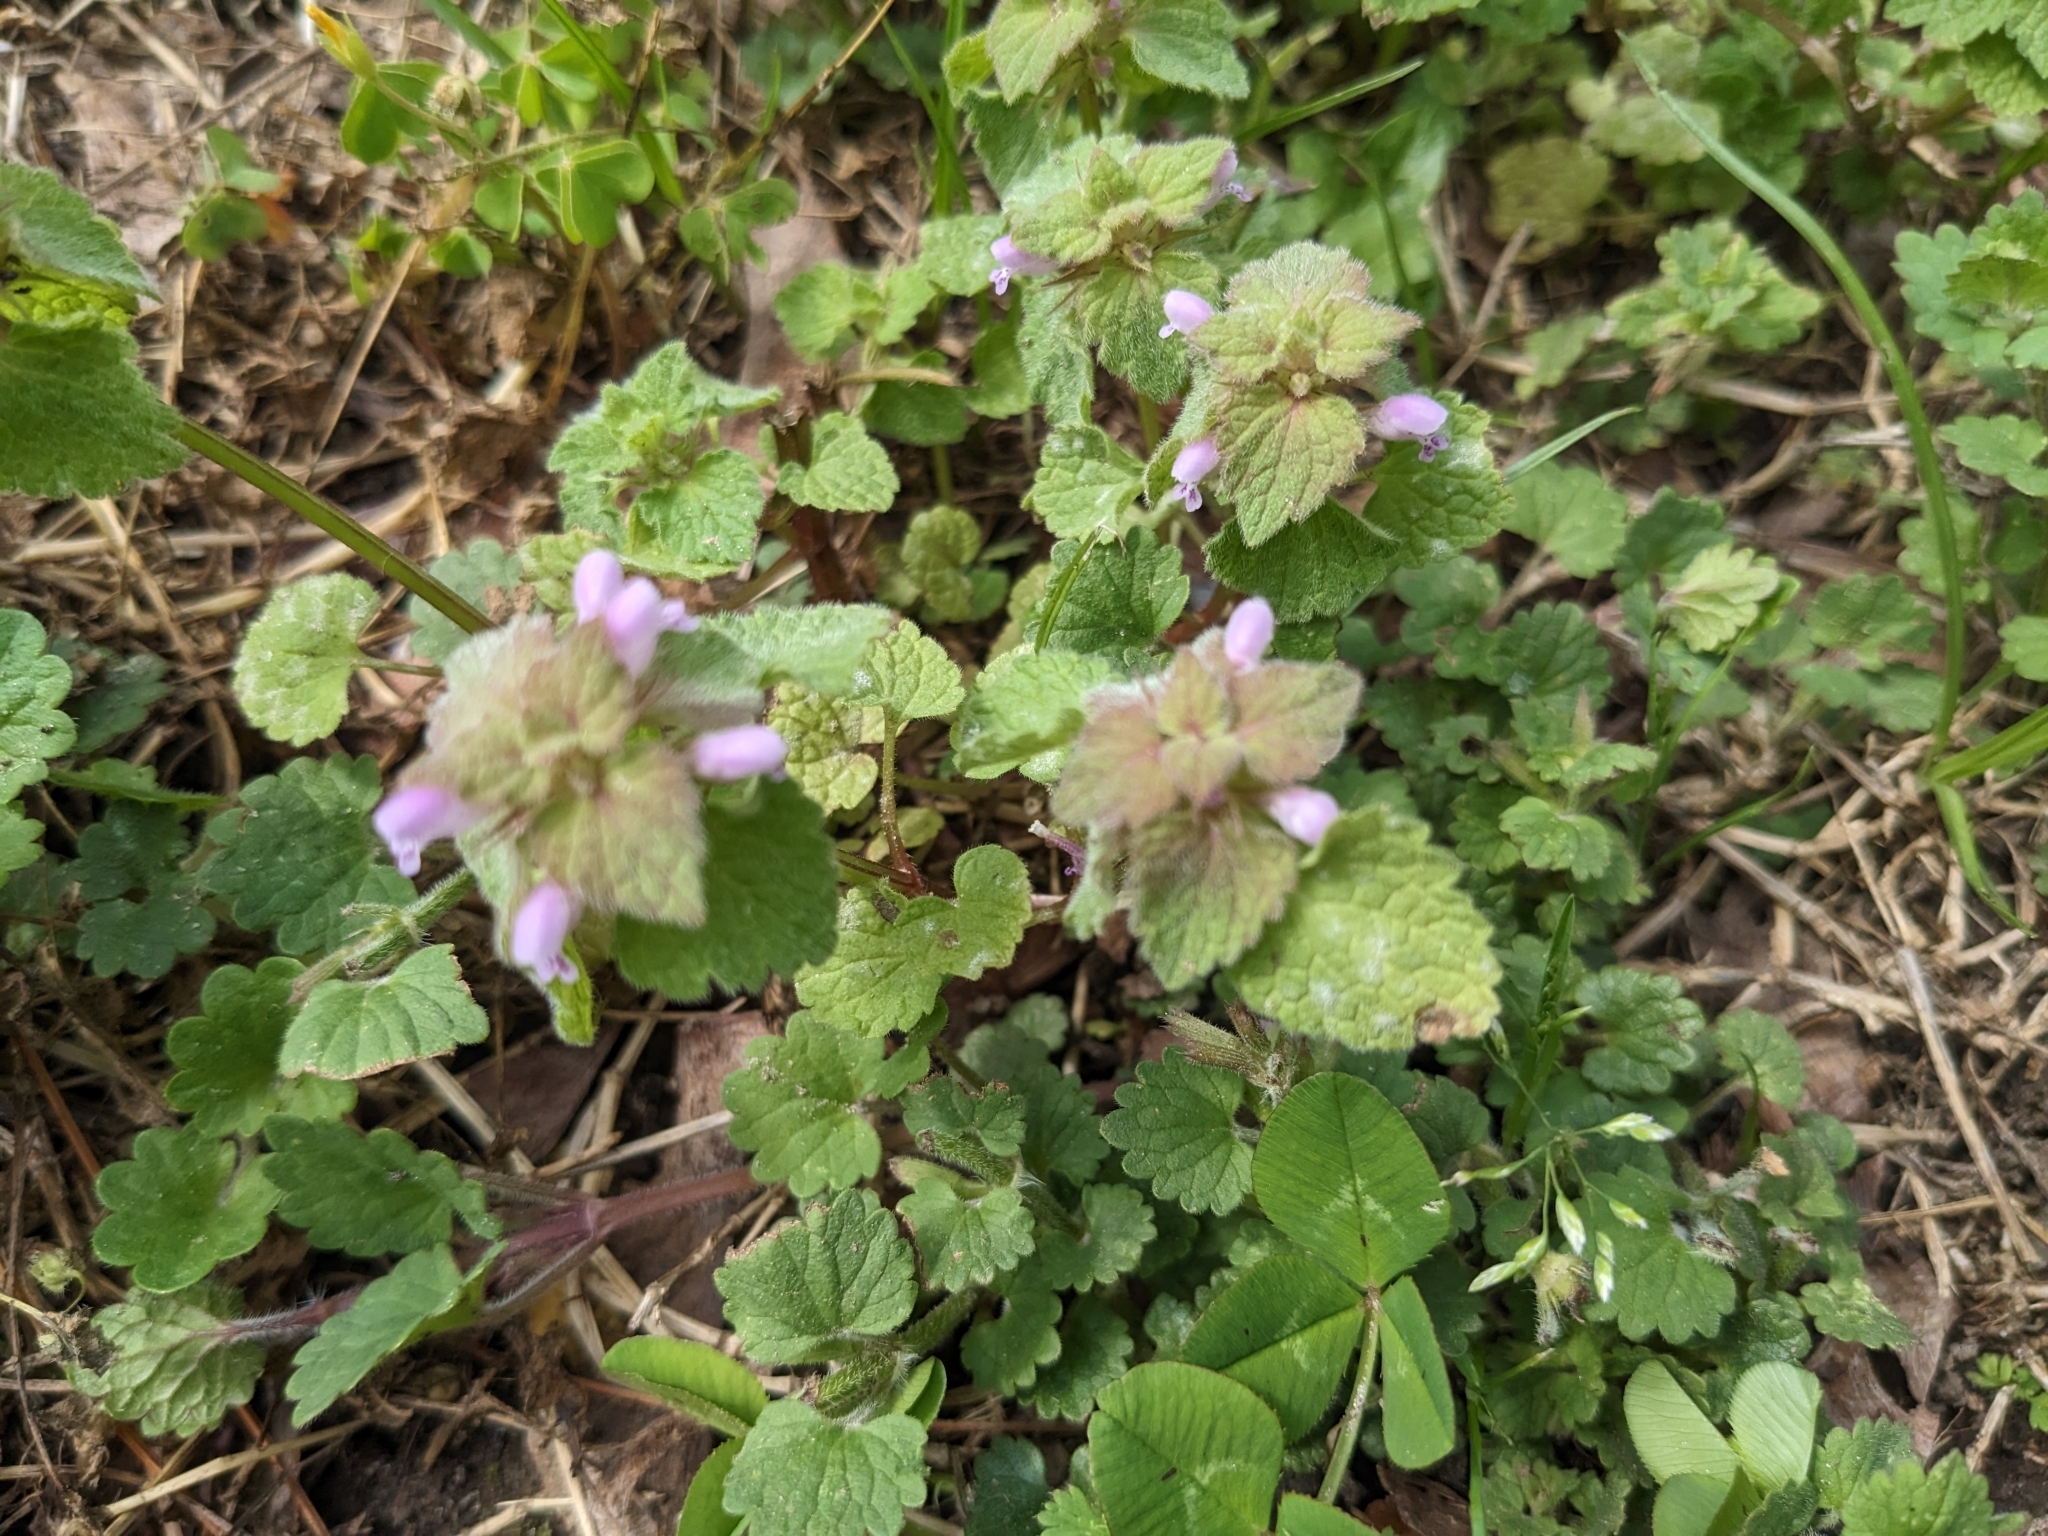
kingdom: Plantae
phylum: Tracheophyta
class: Magnoliopsida
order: Lamiales
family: Lamiaceae
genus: Lamium
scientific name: Lamium purpureum
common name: Red dead-nettle
